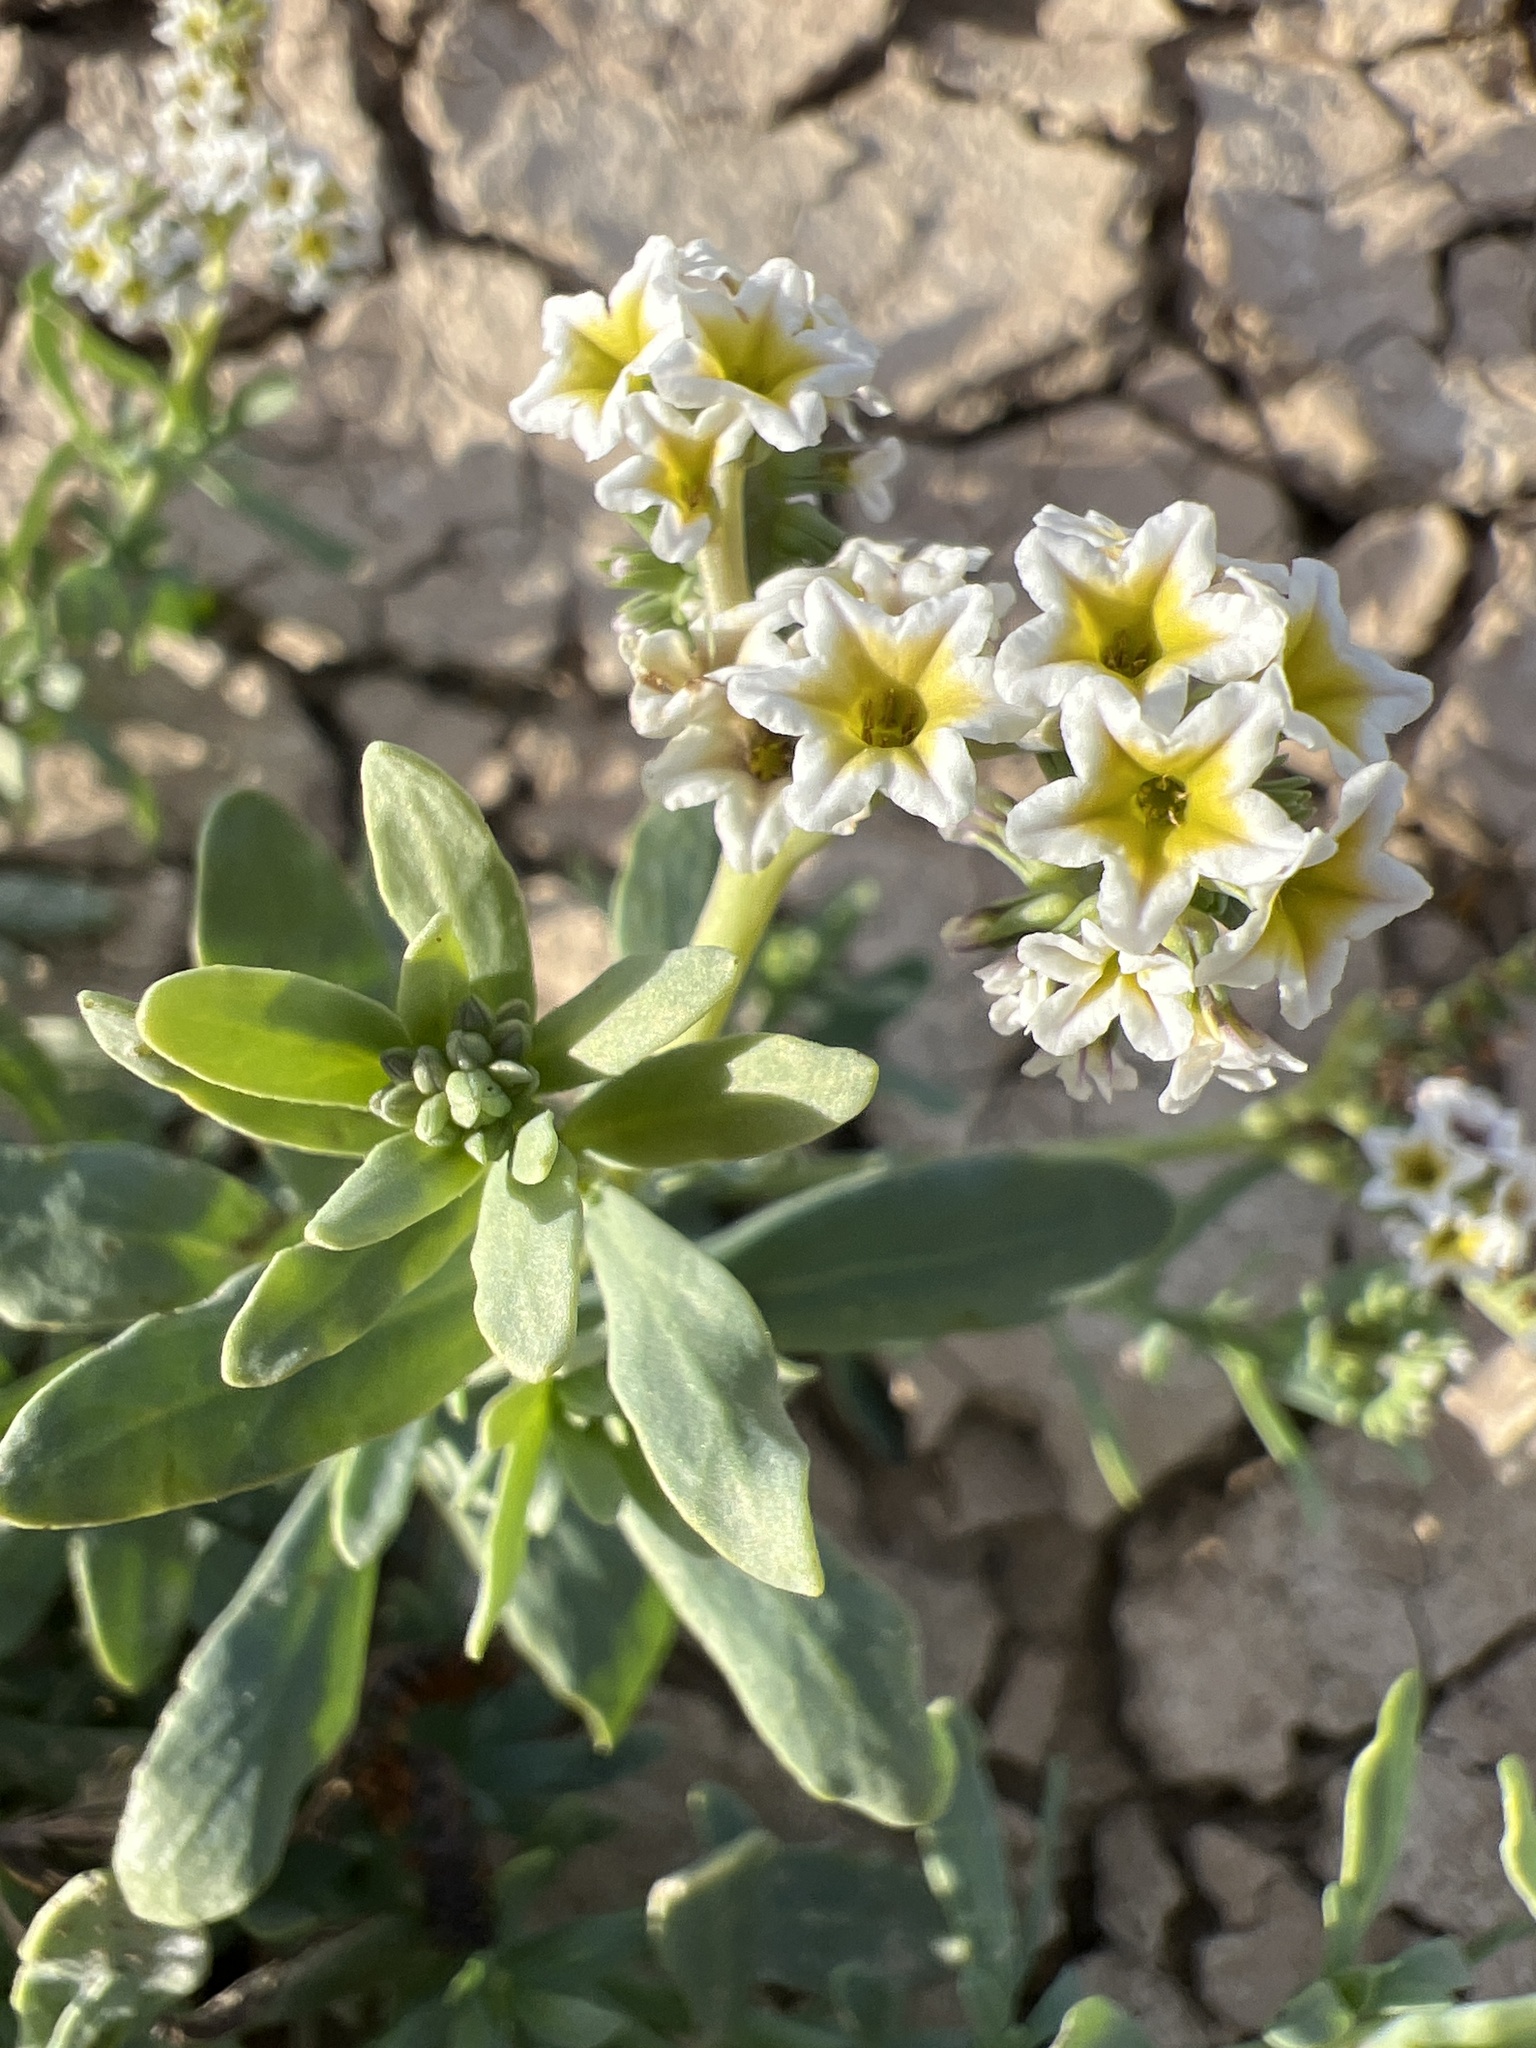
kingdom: Plantae
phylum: Tracheophyta
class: Magnoliopsida
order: Boraginales
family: Heliotropiaceae
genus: Heliotropium
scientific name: Heliotropium curassavicum
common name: Seaside heliotrope
